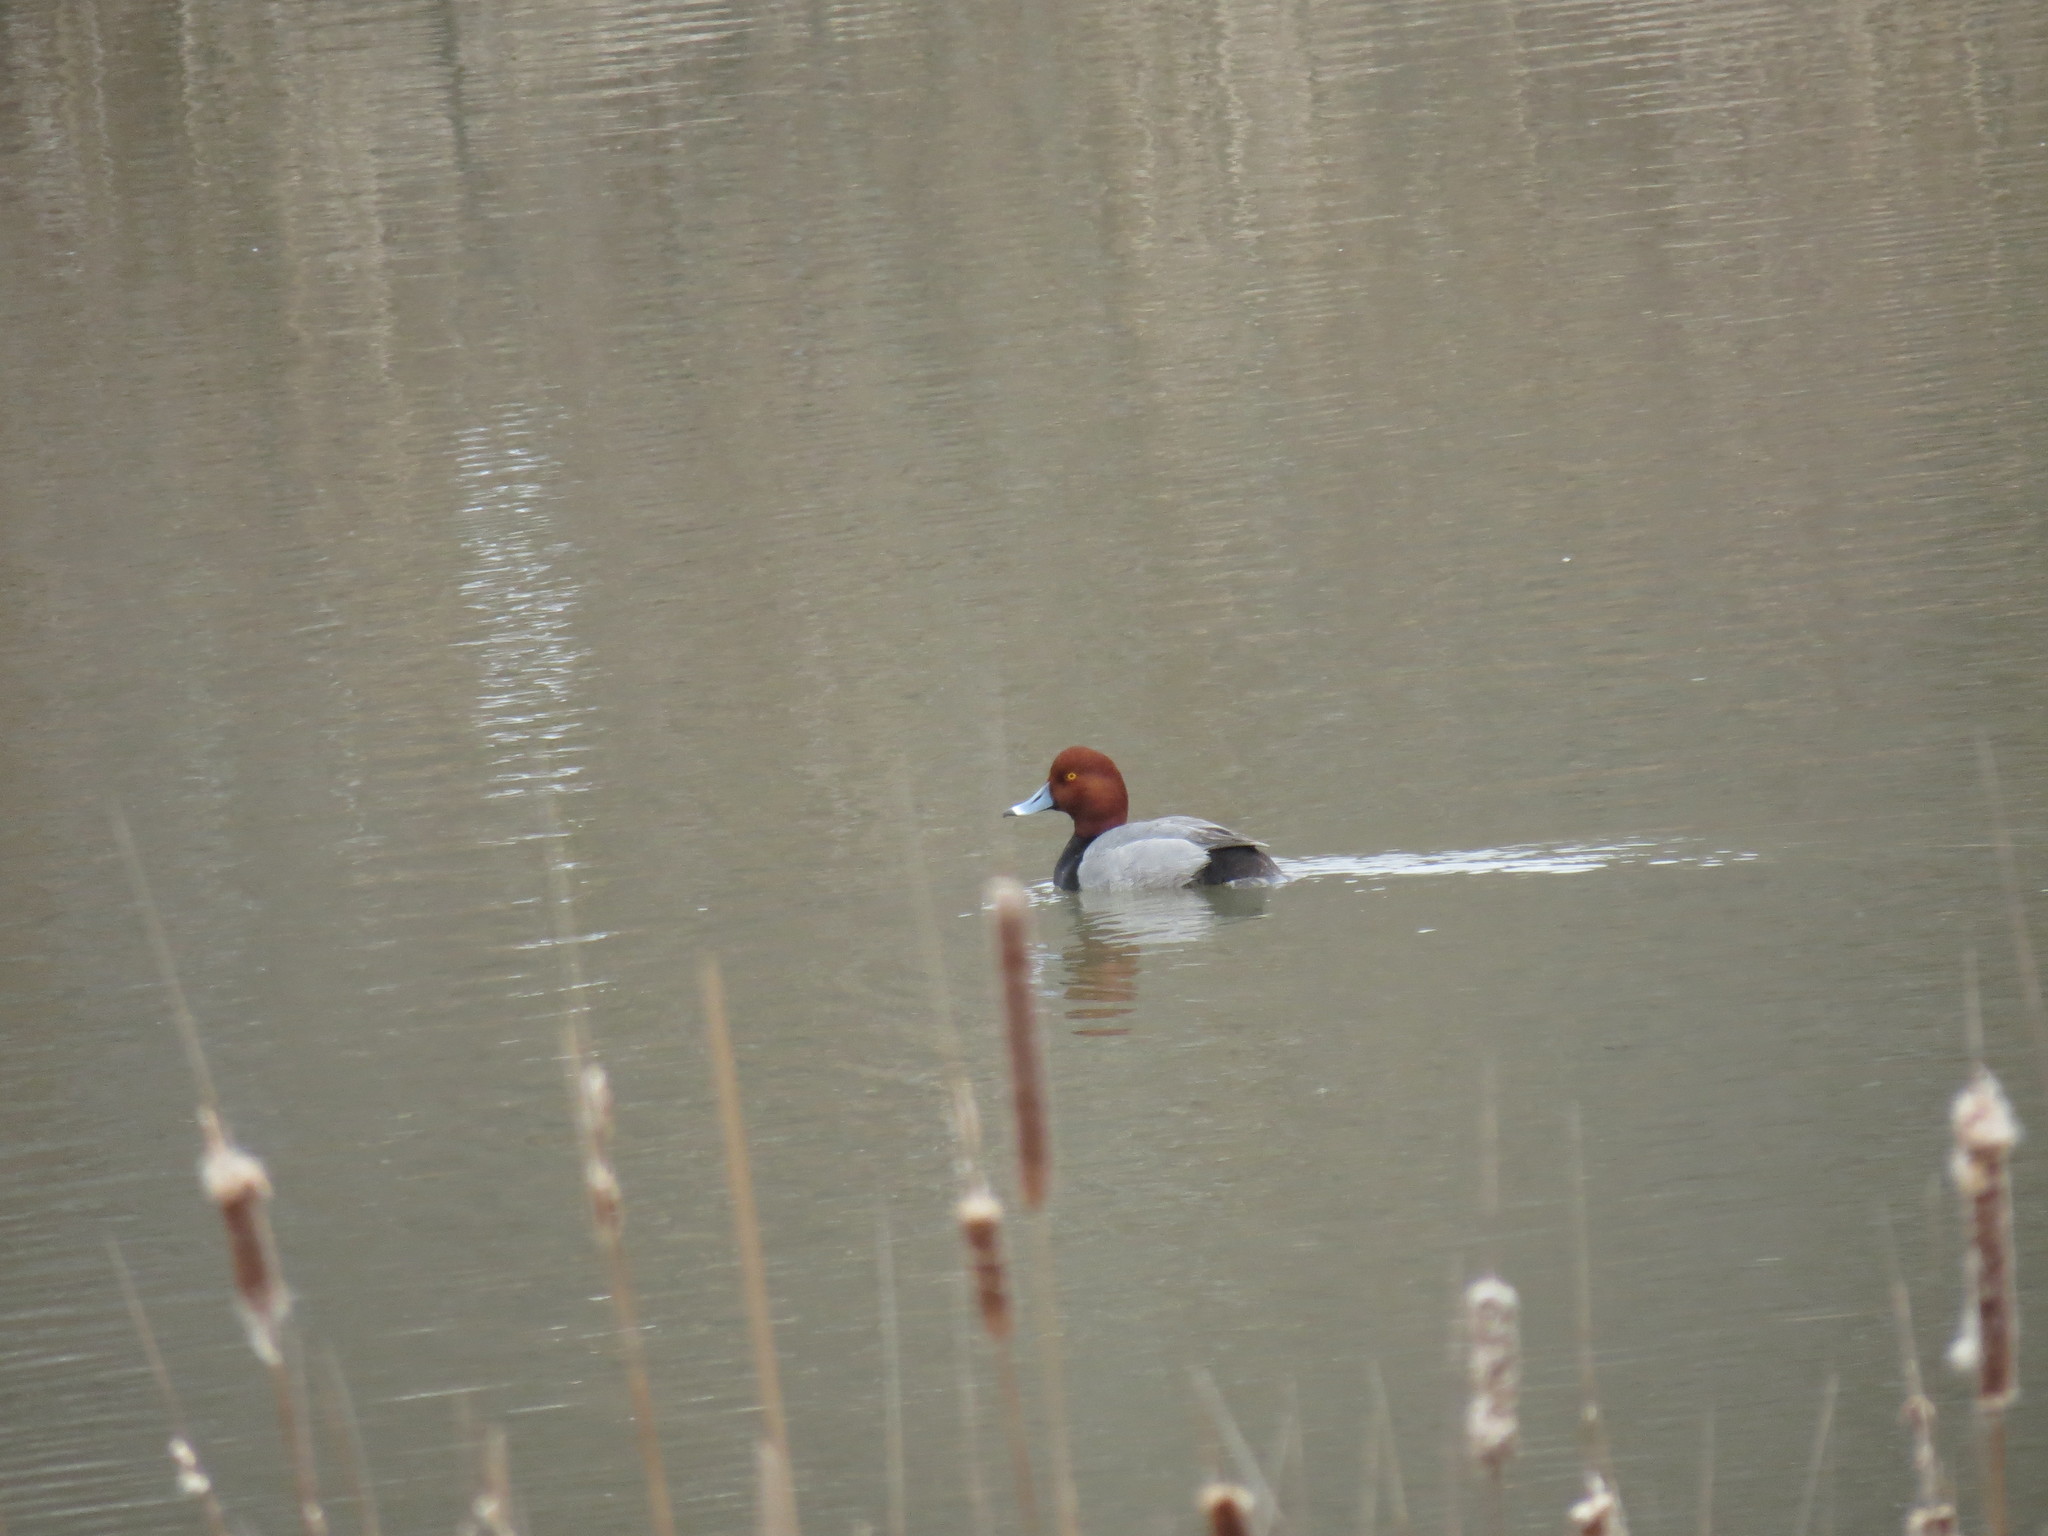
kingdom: Animalia
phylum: Chordata
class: Aves
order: Anseriformes
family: Anatidae
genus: Aythya
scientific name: Aythya americana
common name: Redhead
